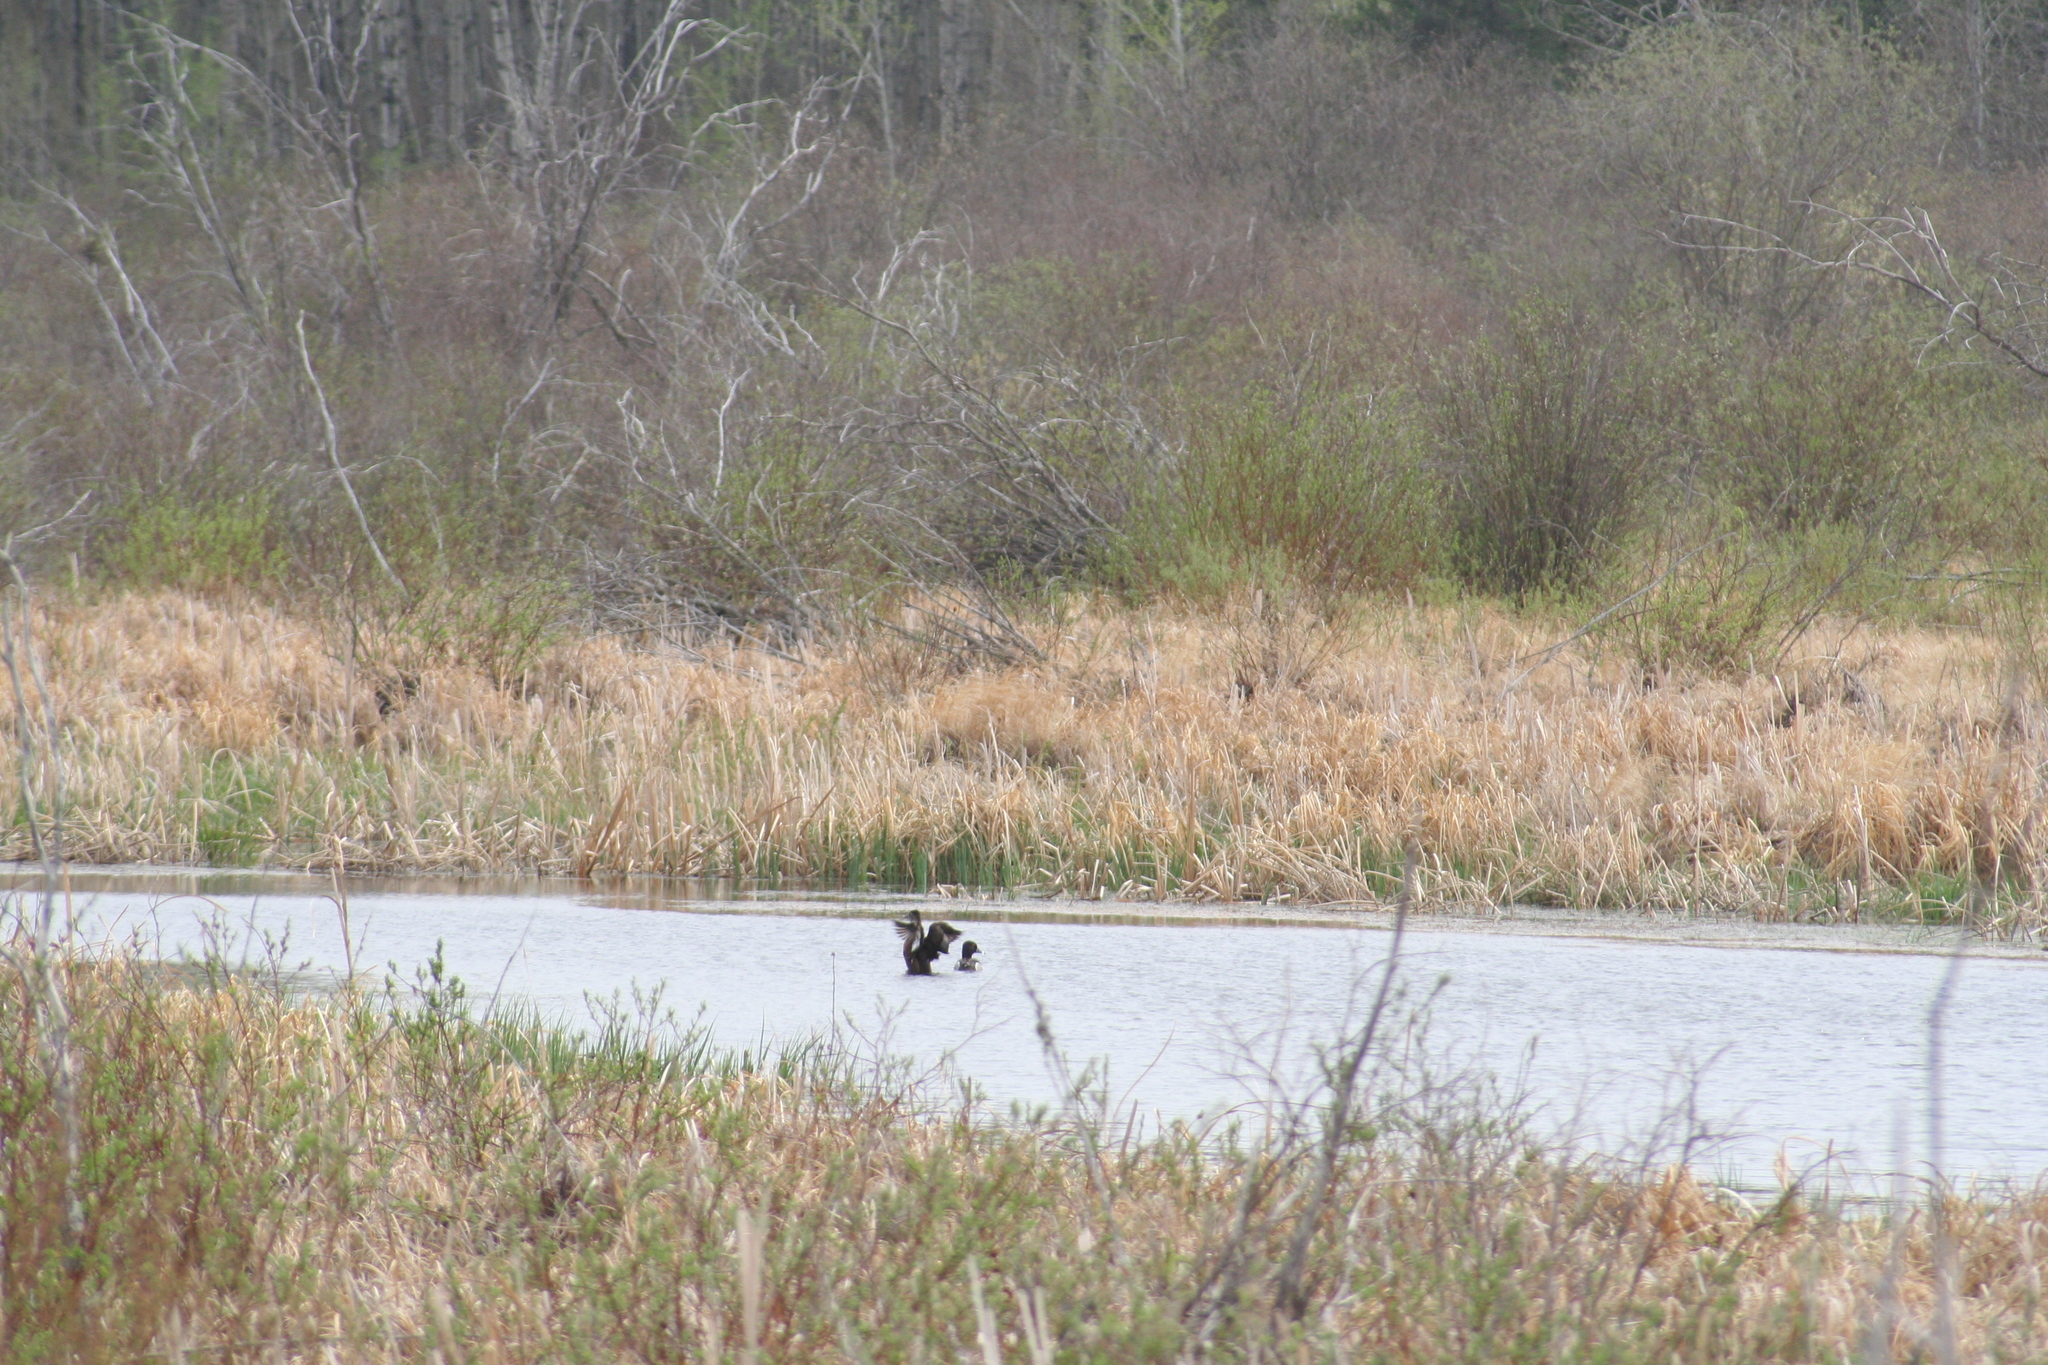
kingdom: Animalia
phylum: Chordata
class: Aves
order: Anseriformes
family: Anatidae
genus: Aythya
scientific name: Aythya collaris
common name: Ring-necked duck
